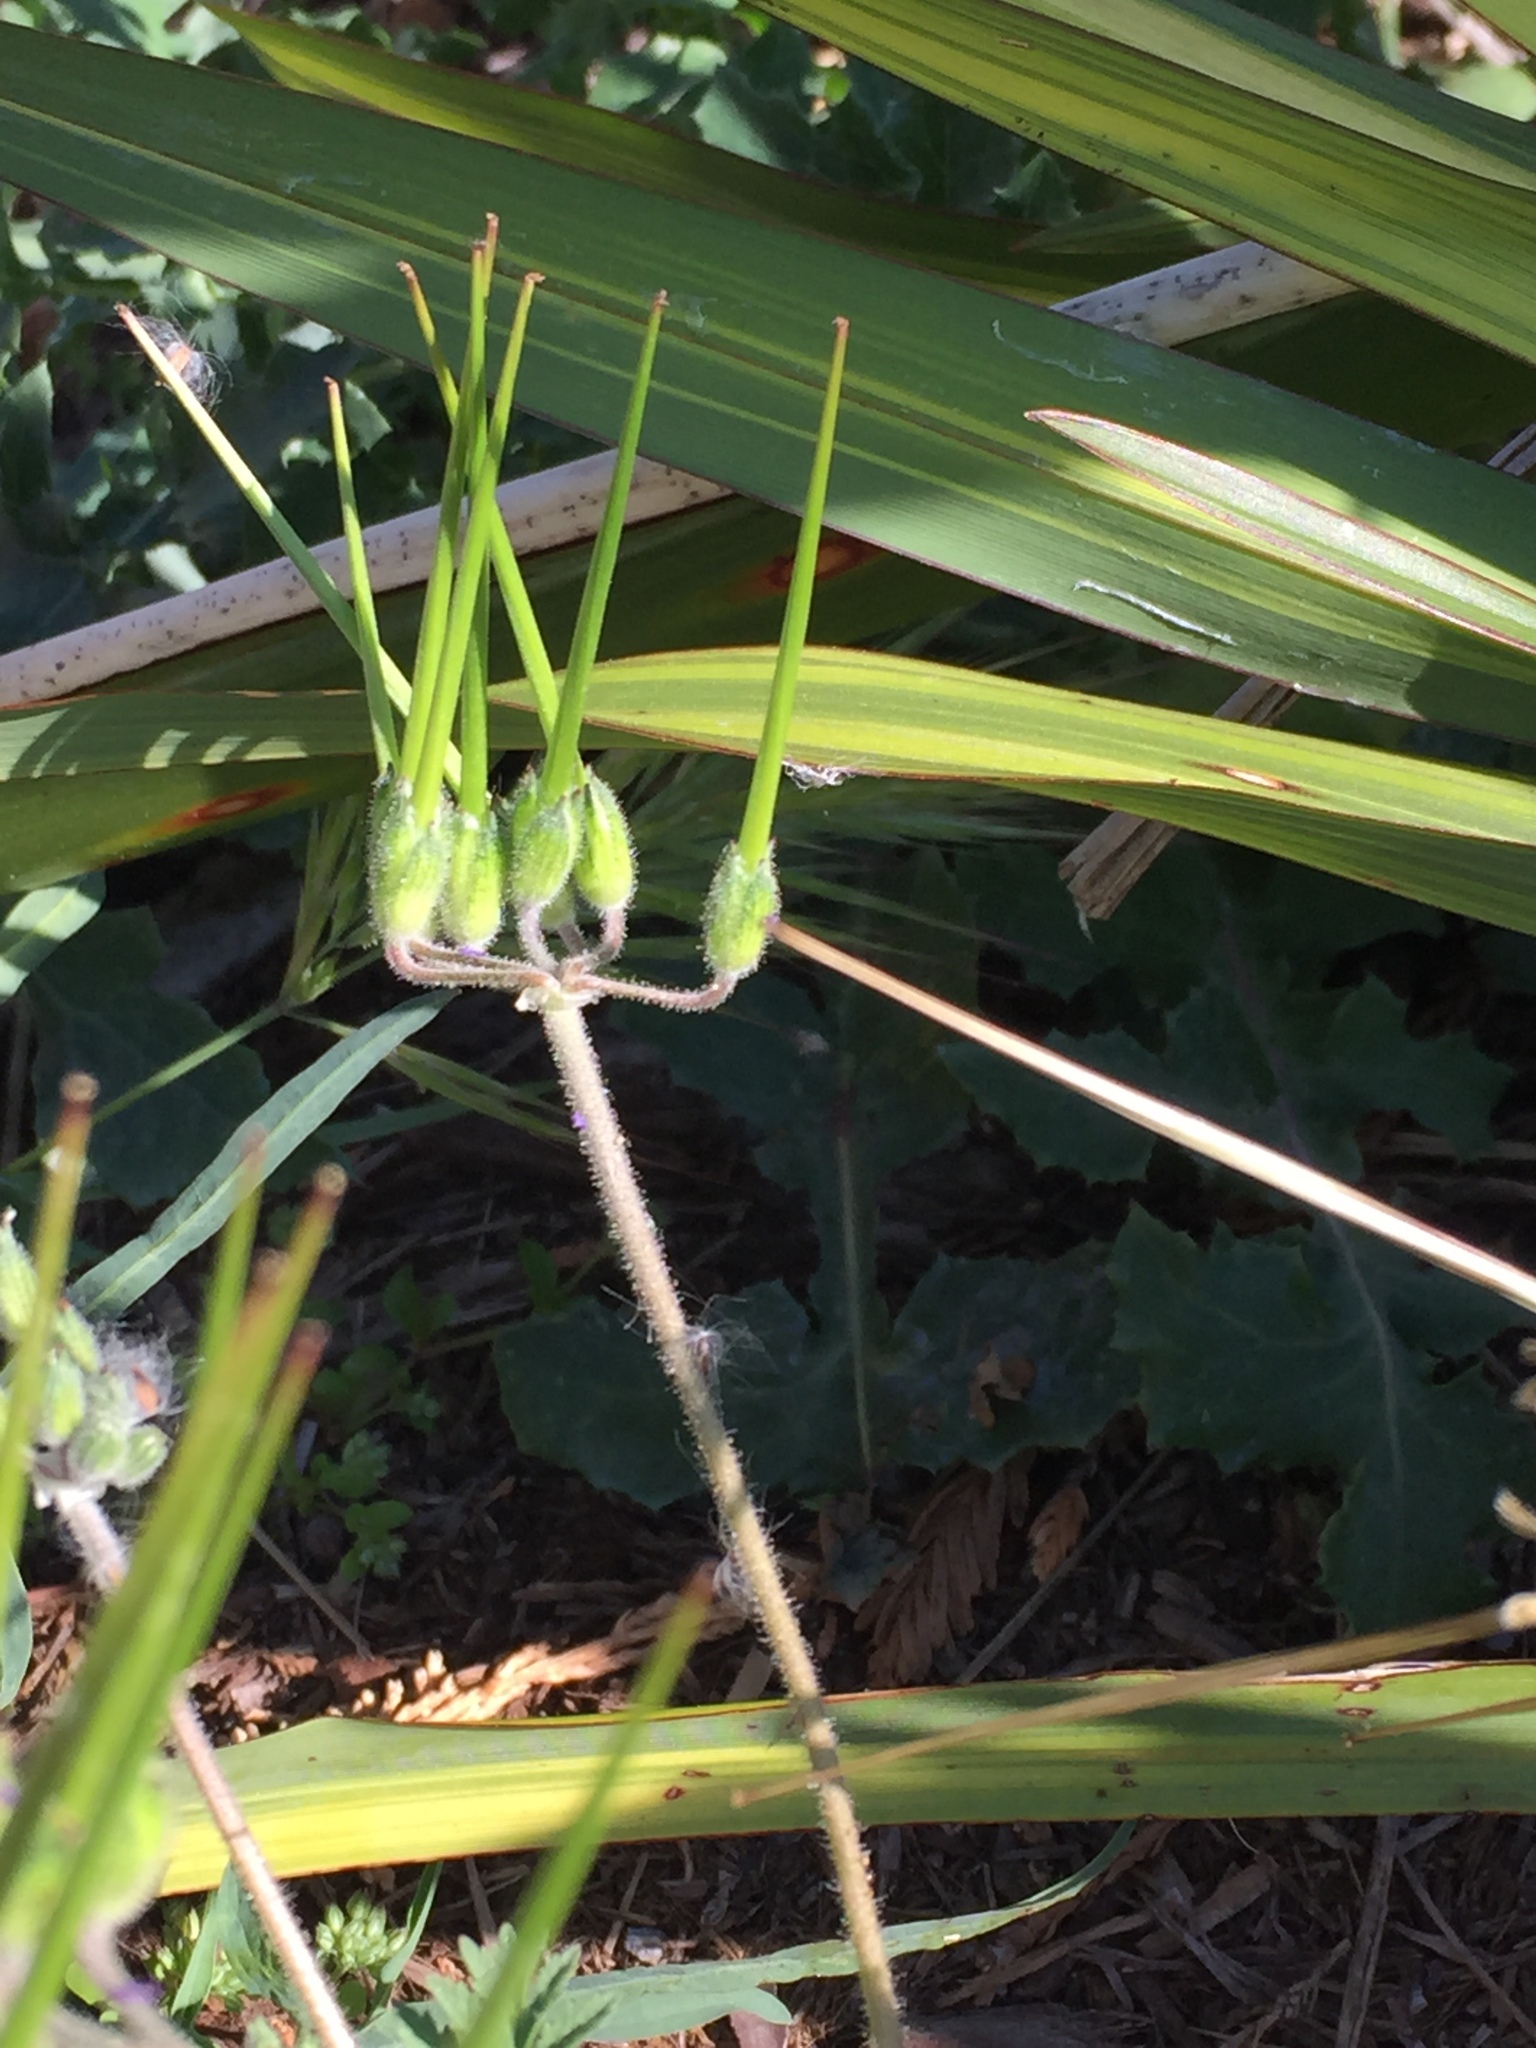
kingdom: Plantae
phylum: Tracheophyta
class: Magnoliopsida
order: Geraniales
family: Geraniaceae
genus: Erodium
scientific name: Erodium moschatum
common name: Musk stork's-bill
